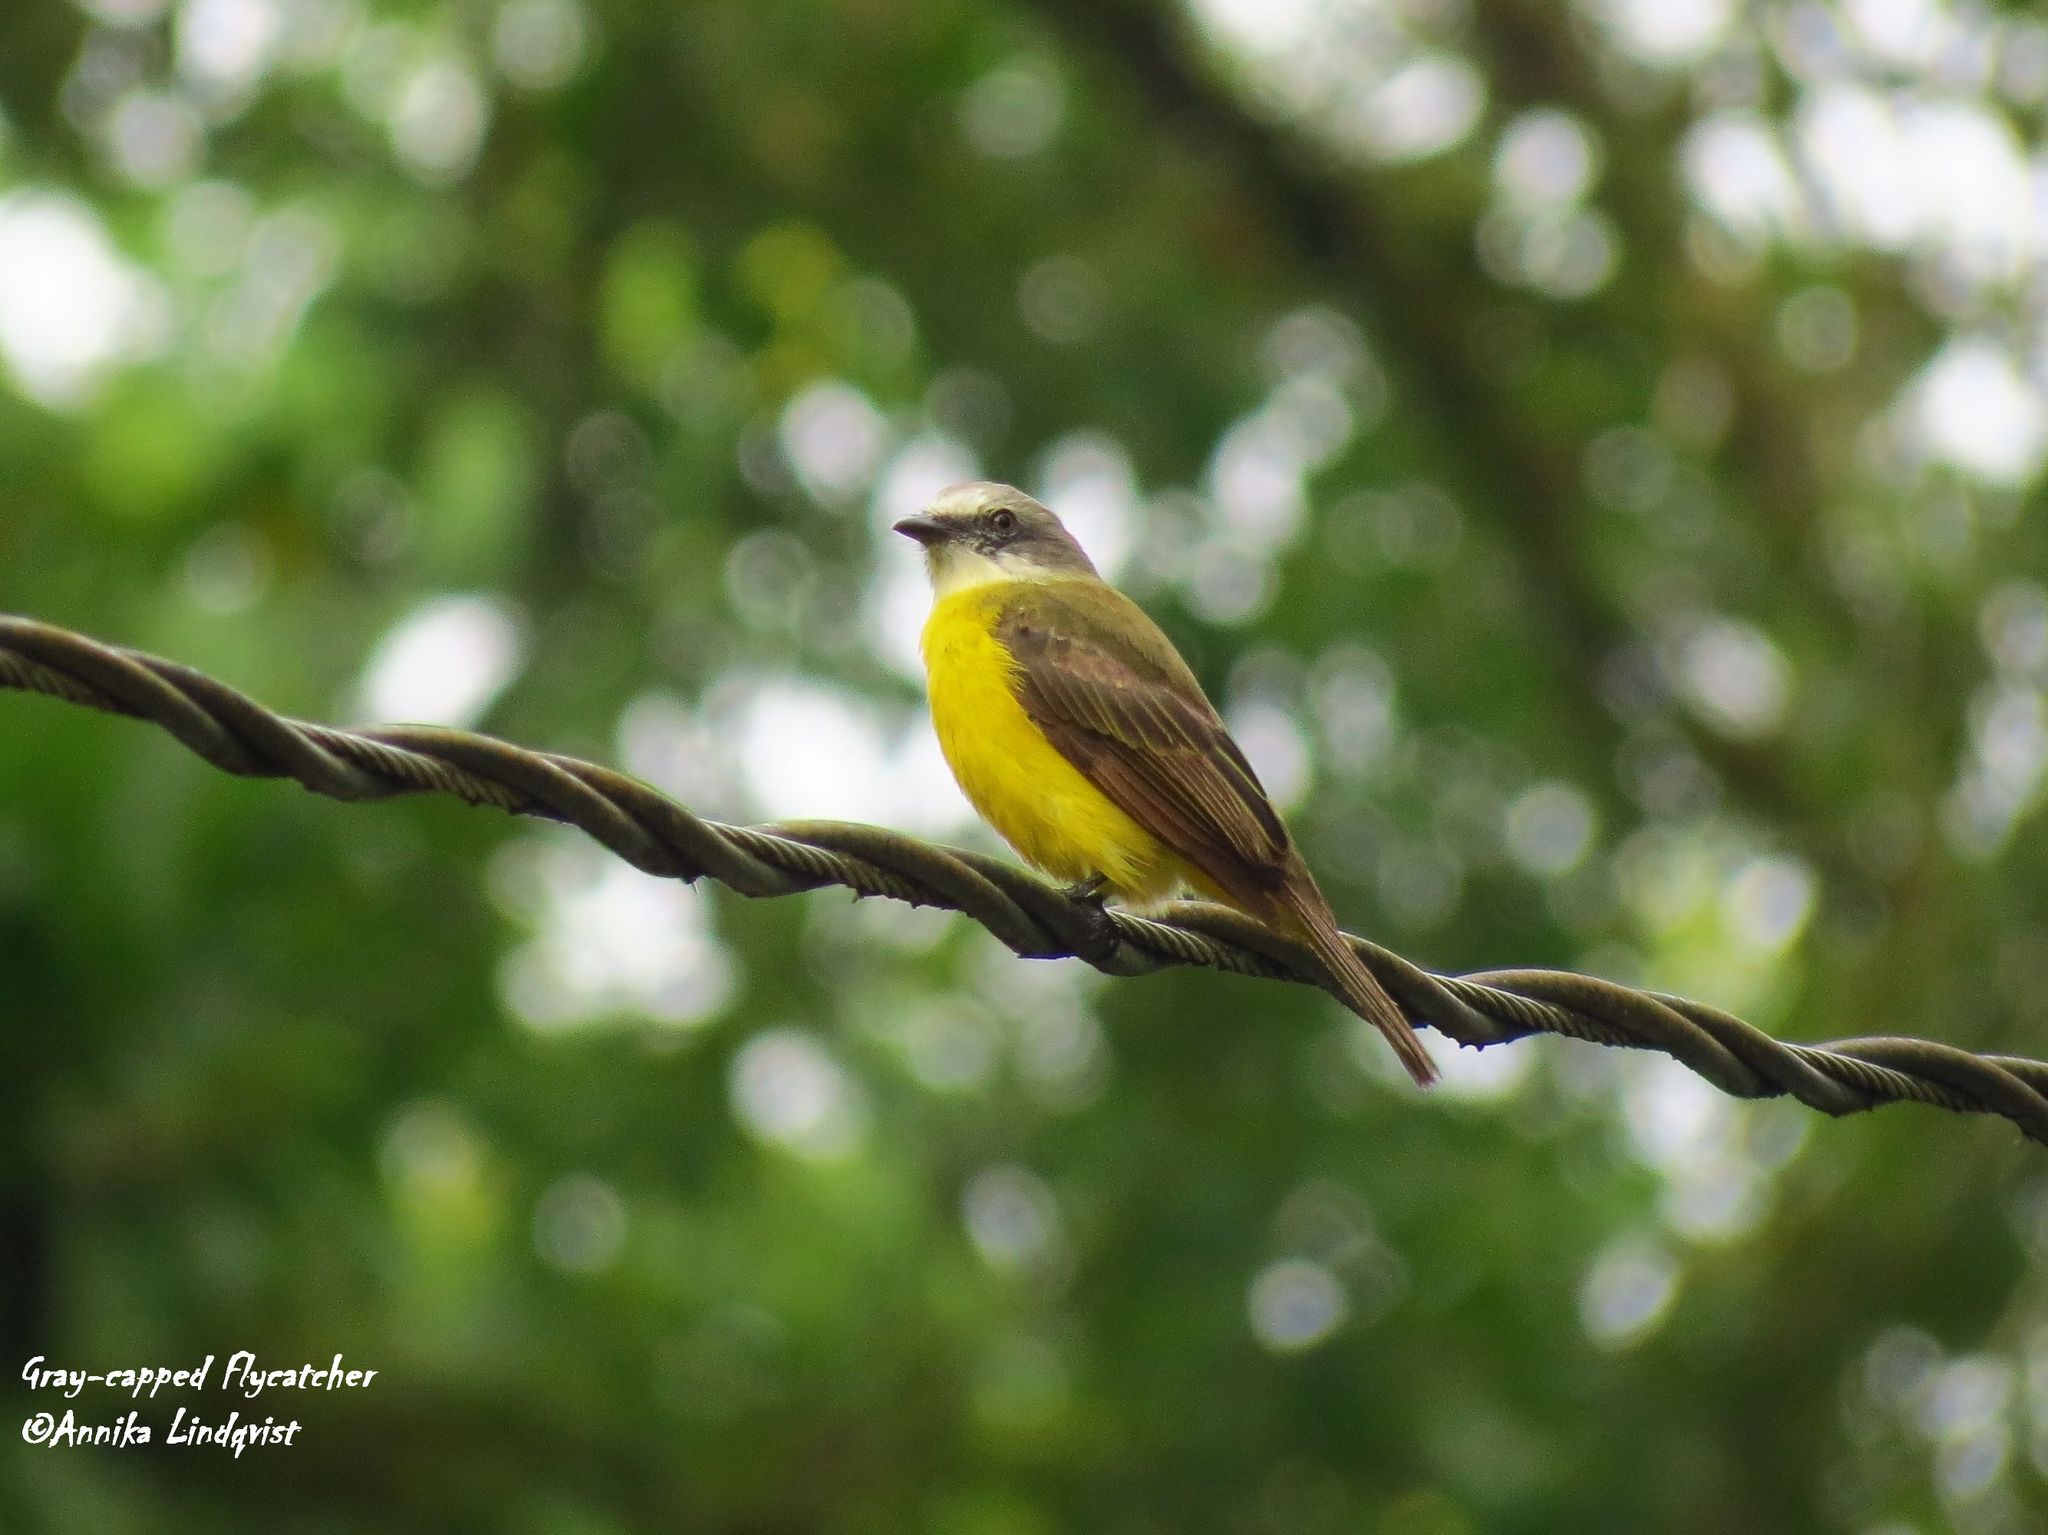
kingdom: Animalia
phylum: Chordata
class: Aves
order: Passeriformes
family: Tyrannidae
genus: Myiozetetes
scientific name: Myiozetetes granadensis
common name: Gray-capped flycatcher
